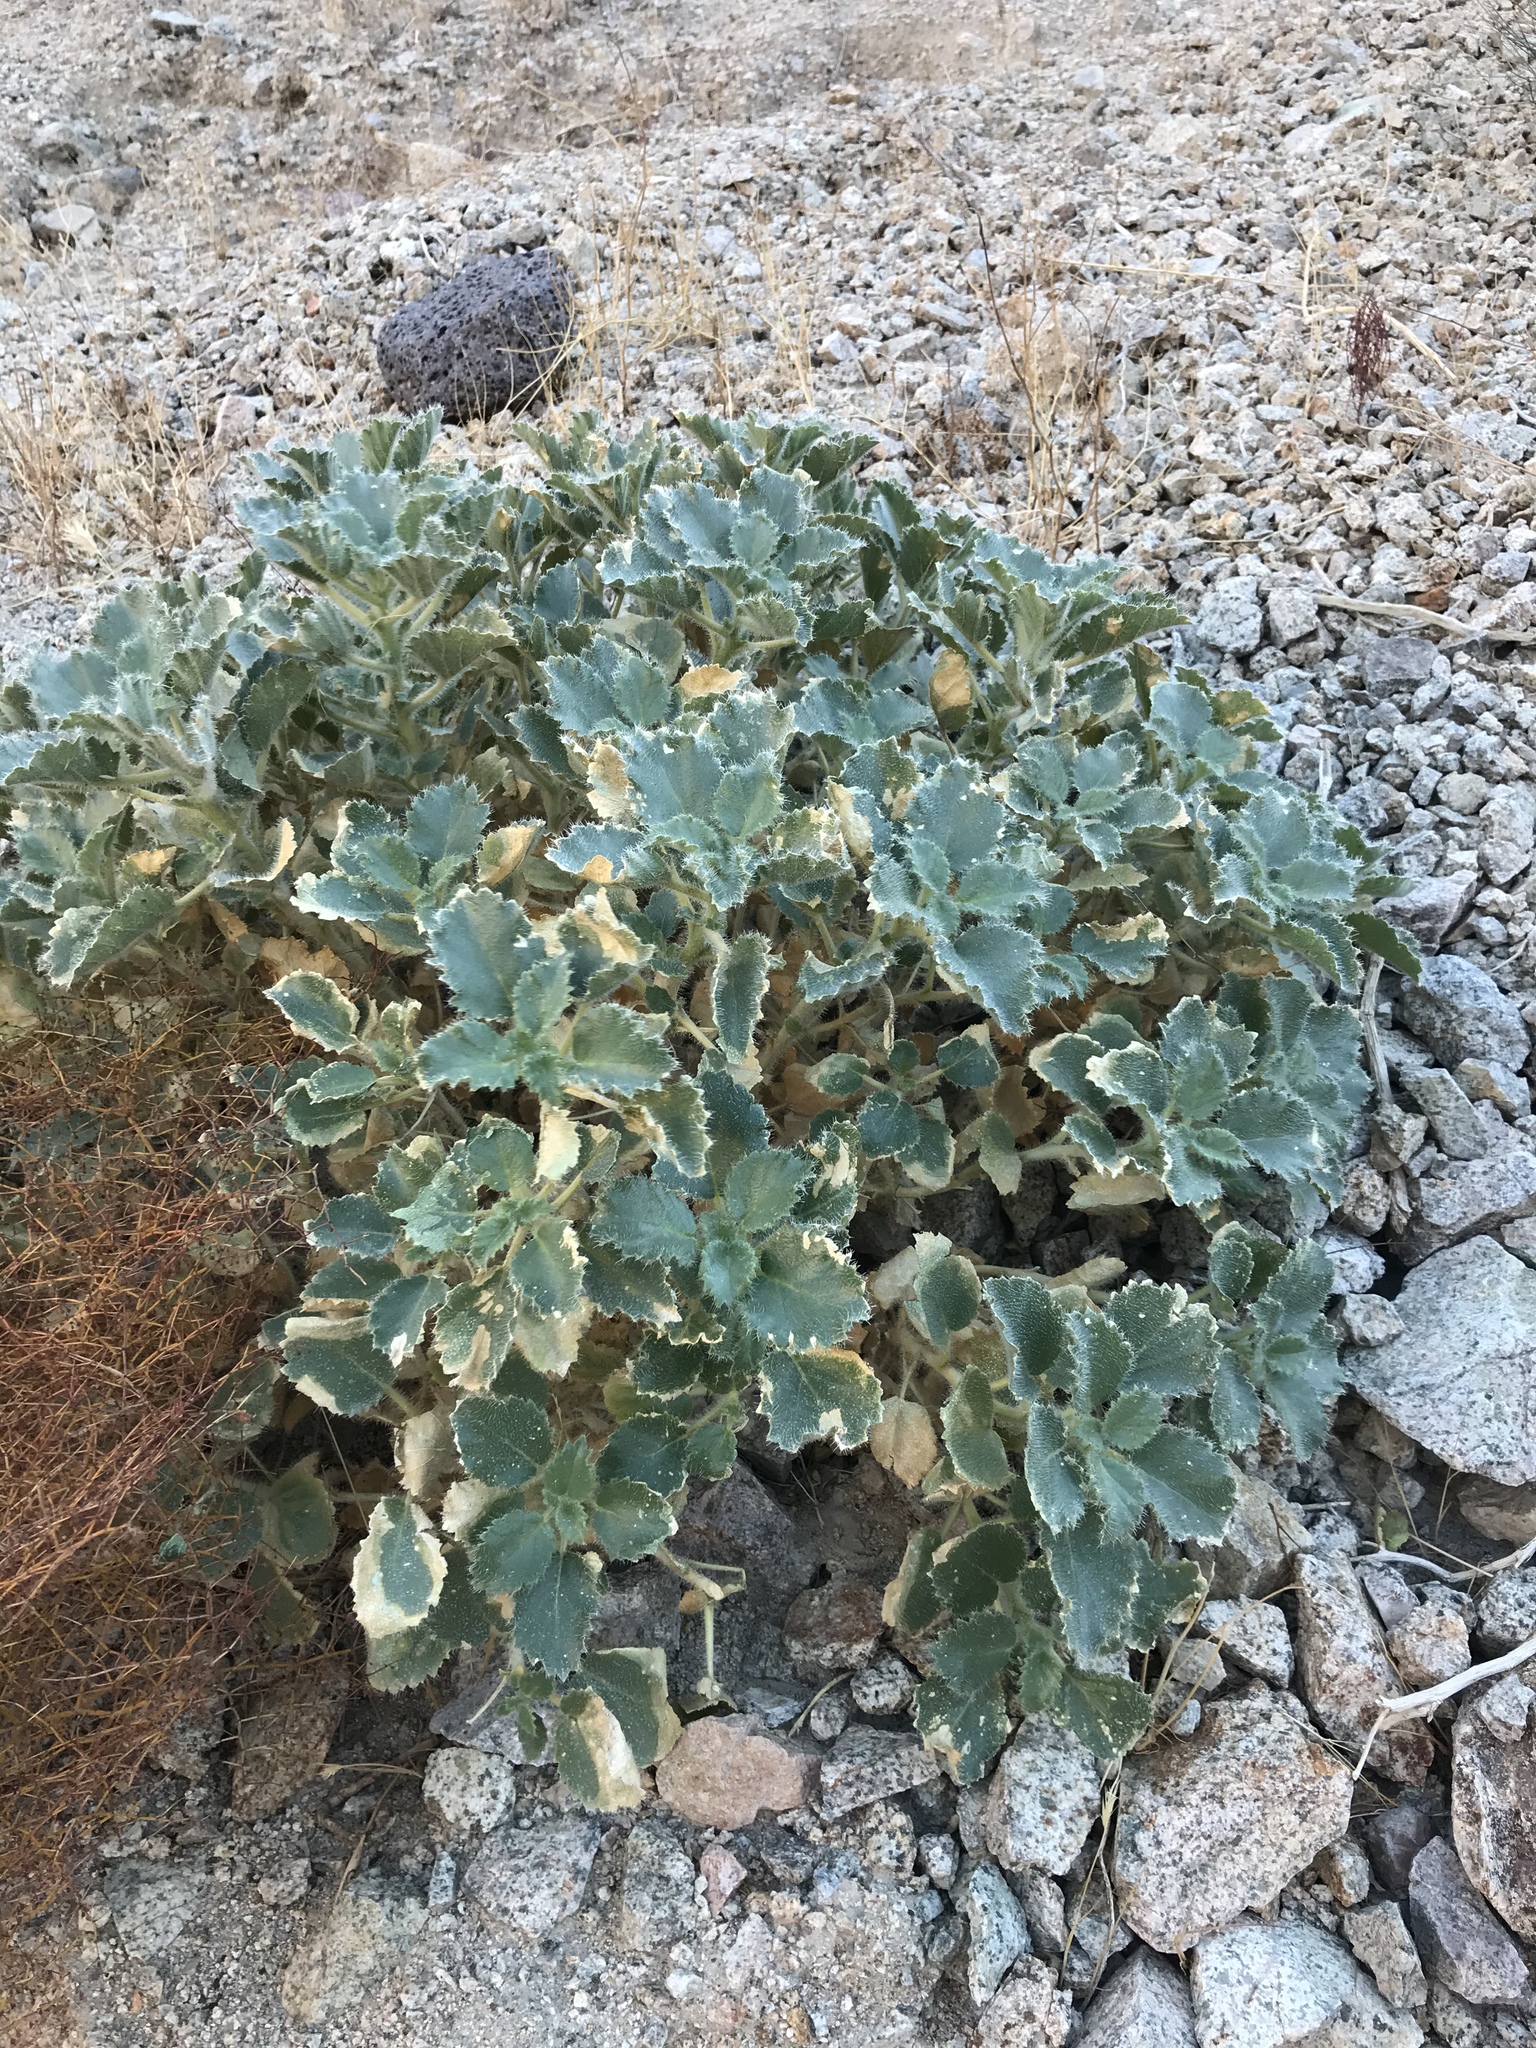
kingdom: Plantae
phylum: Tracheophyta
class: Magnoliopsida
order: Cornales
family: Loasaceae
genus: Eucnide
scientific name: Eucnide urens
